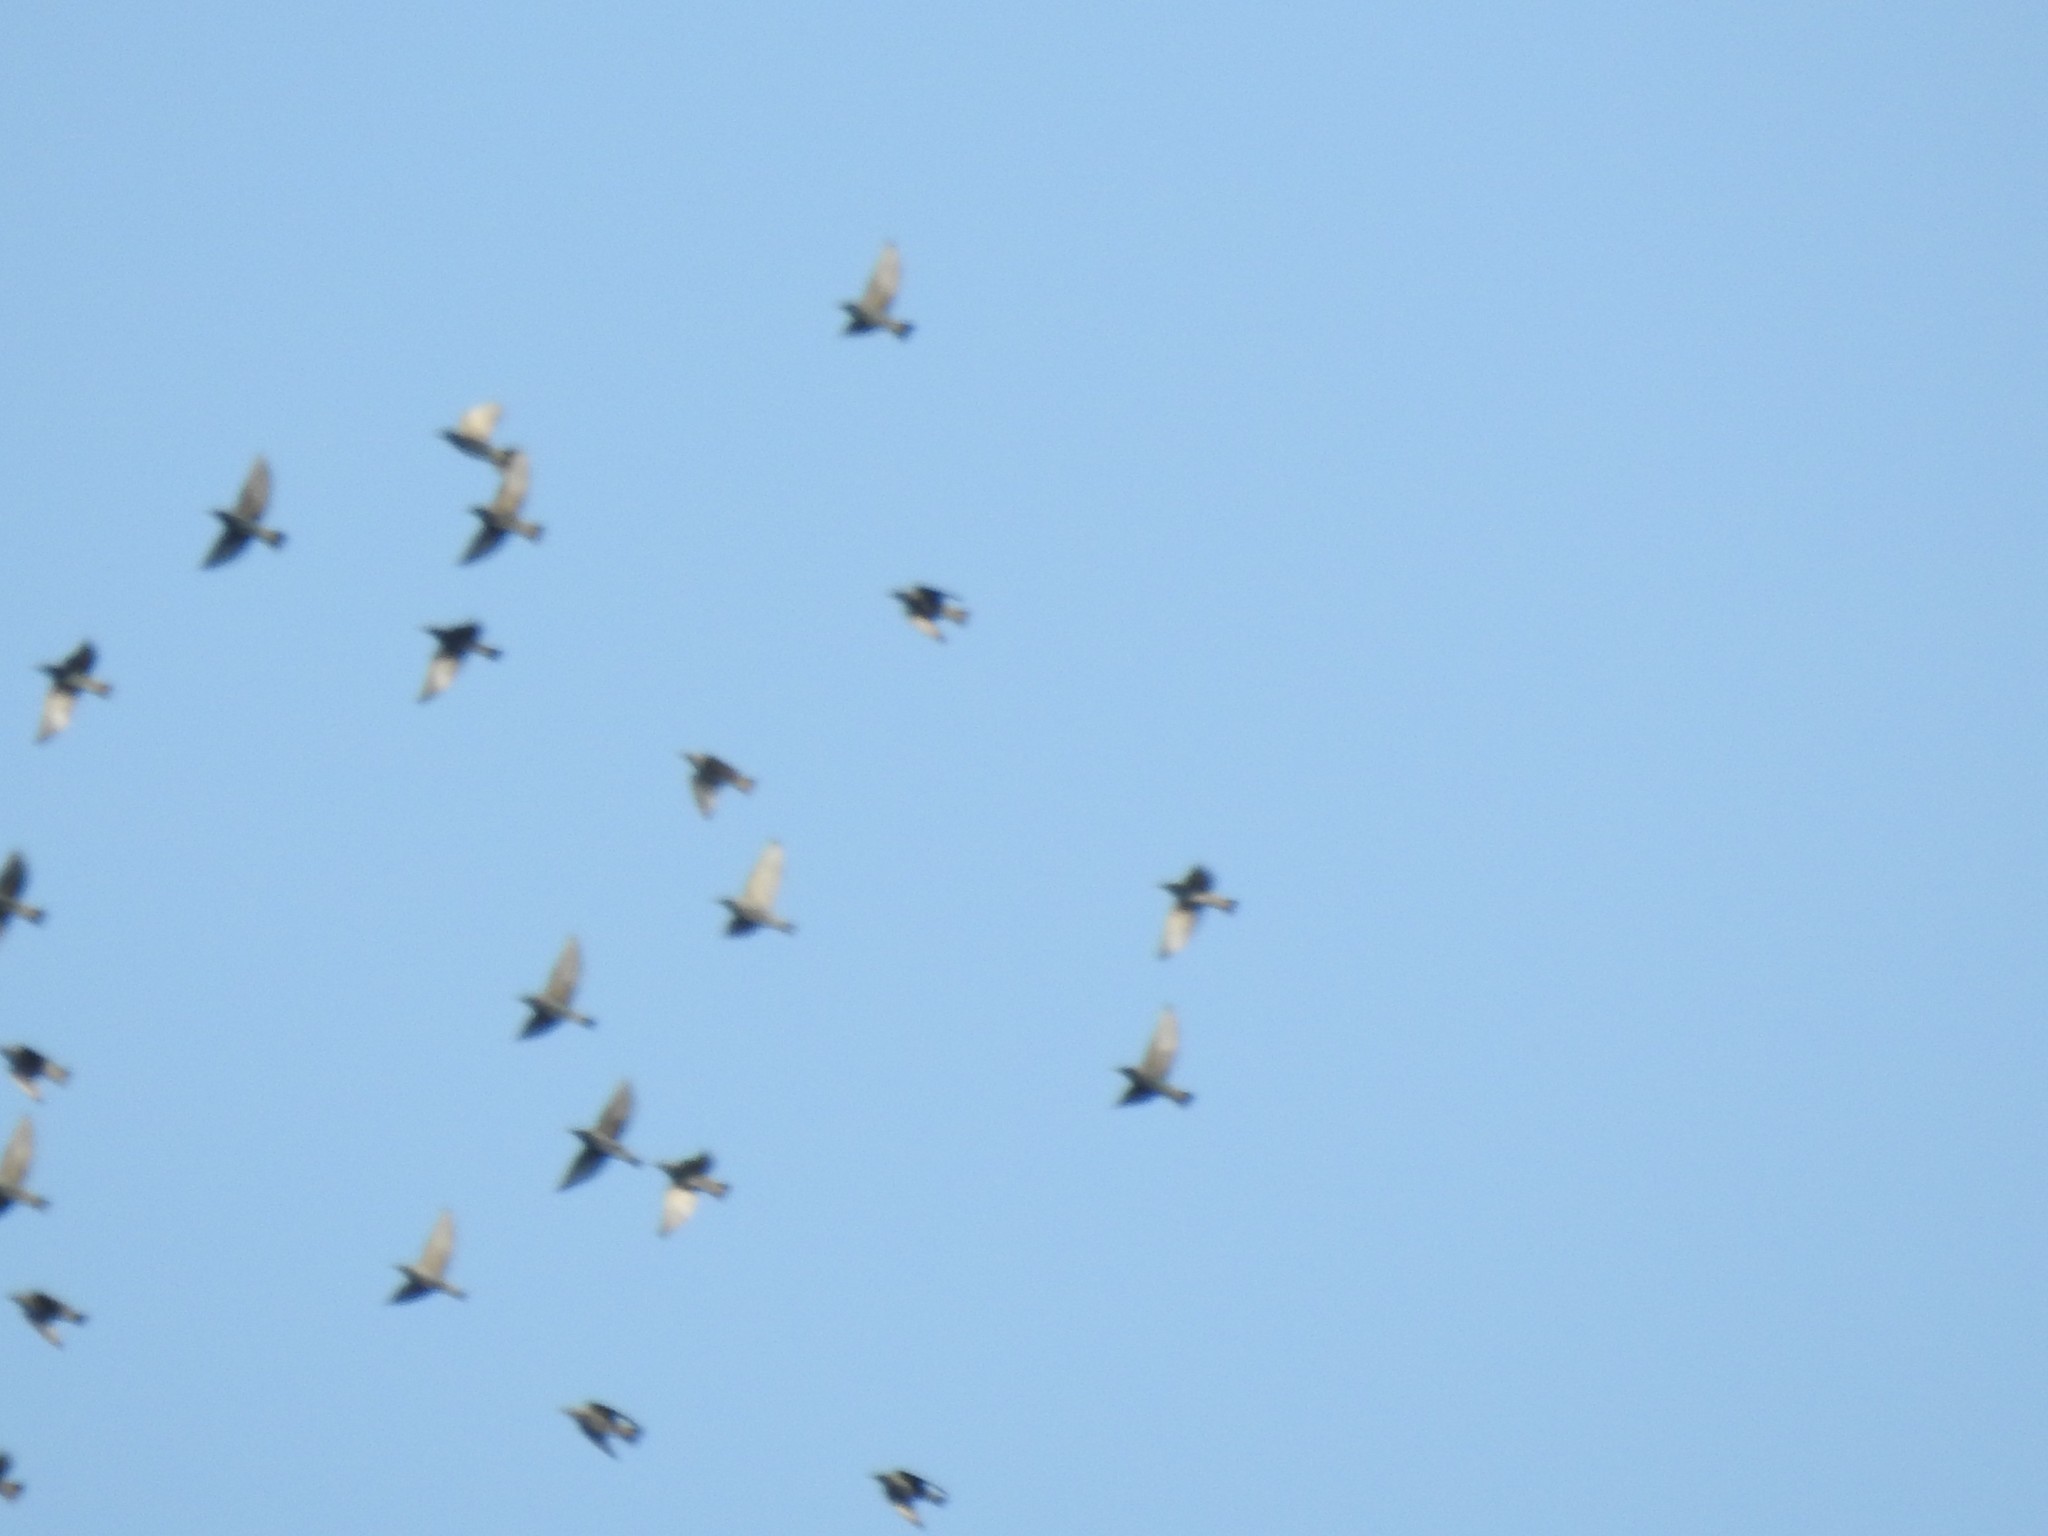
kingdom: Animalia
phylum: Chordata
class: Aves
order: Passeriformes
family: Sturnidae
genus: Sturnus
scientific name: Sturnus vulgaris
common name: Common starling
